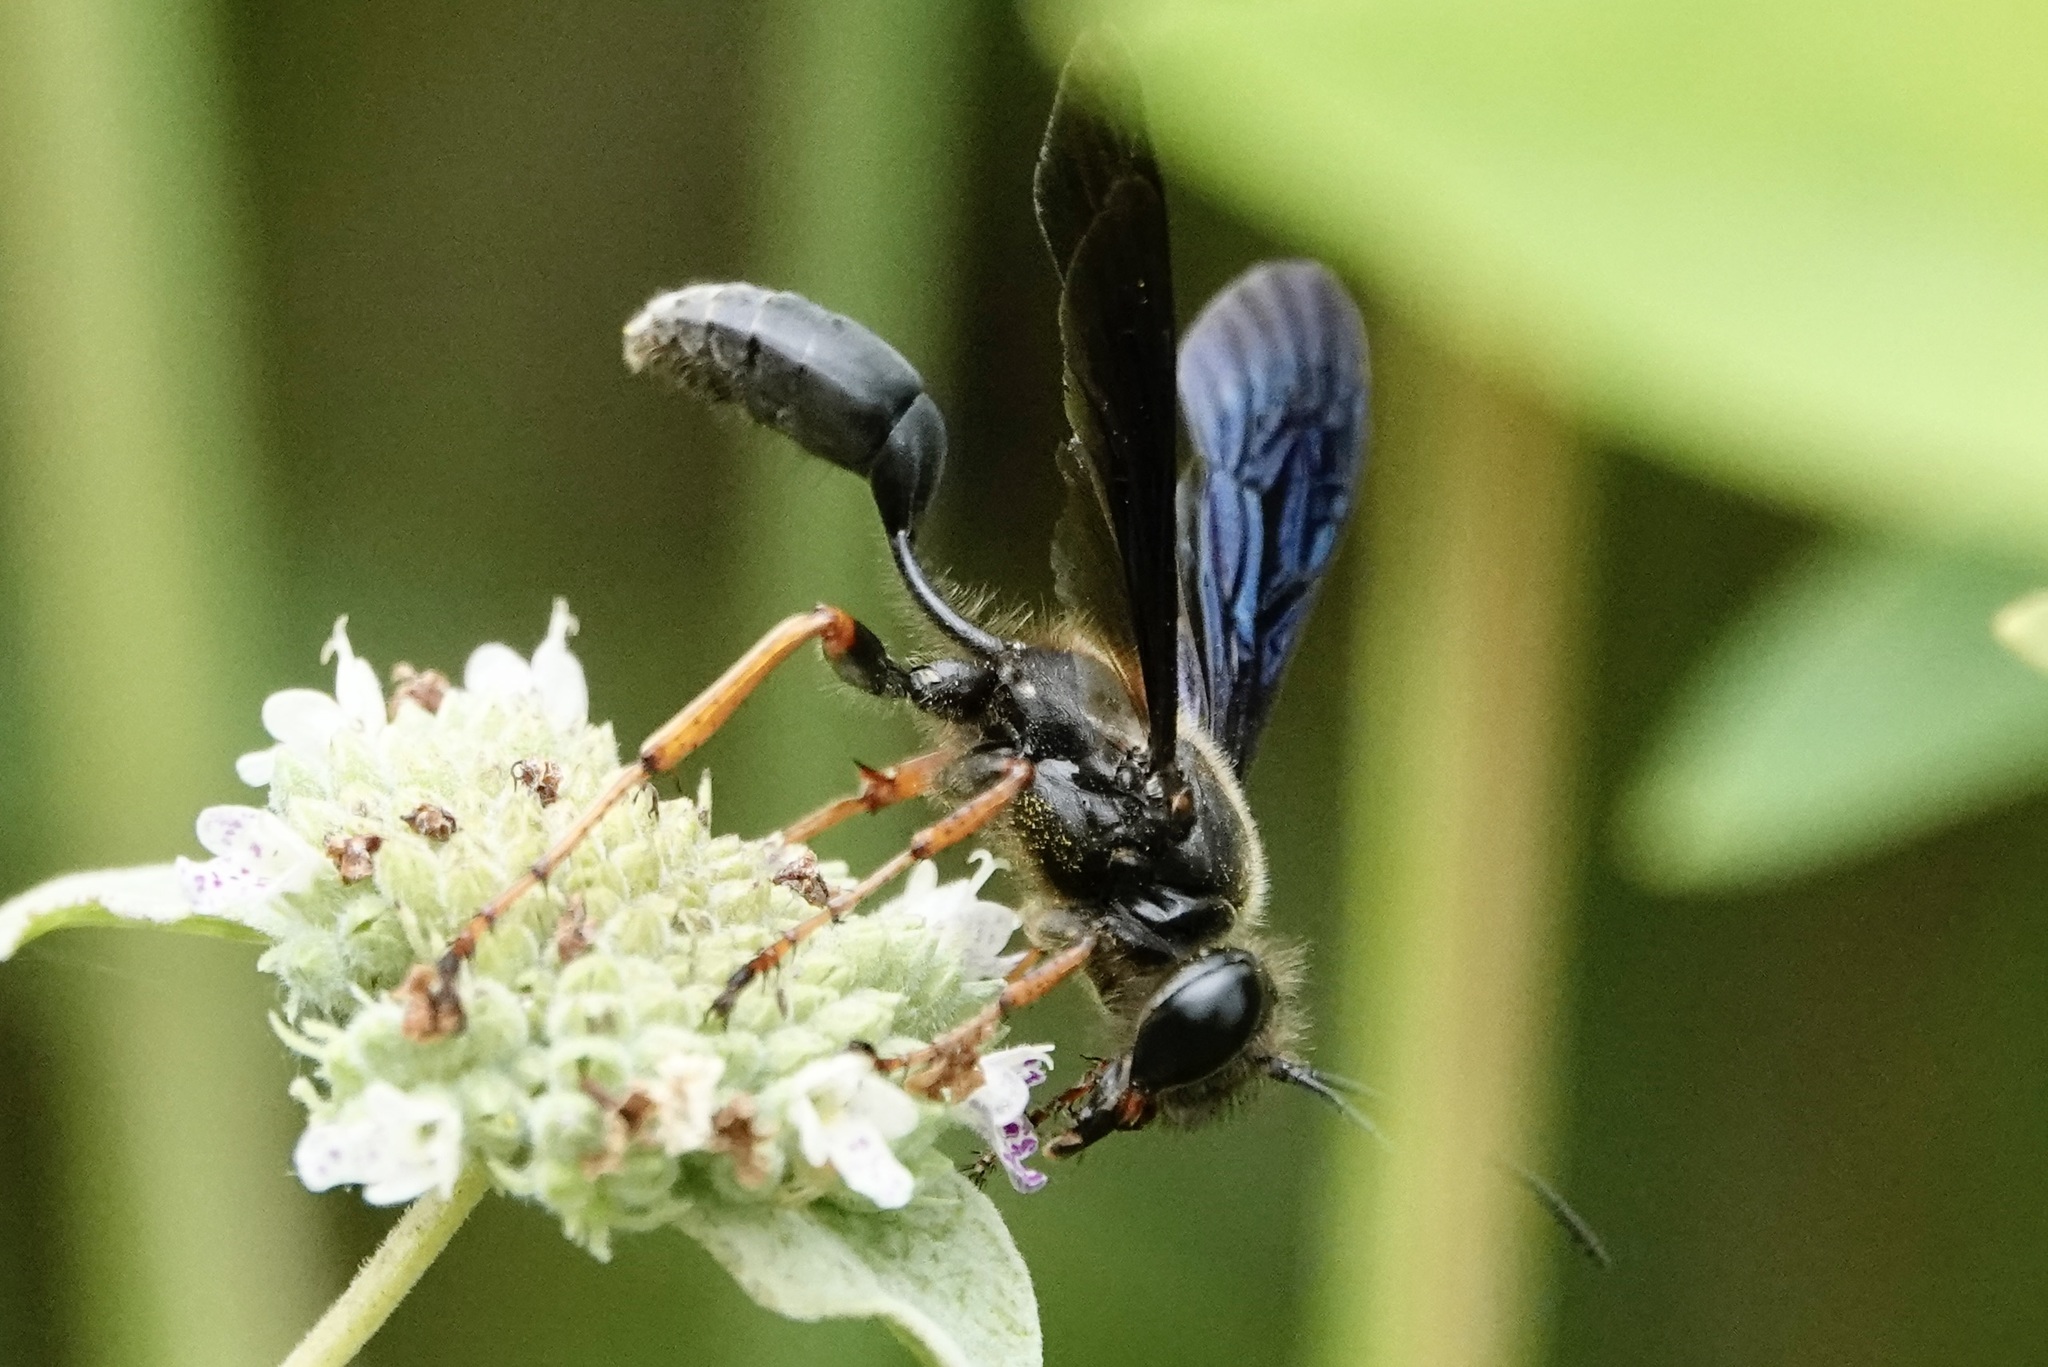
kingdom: Animalia
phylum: Arthropoda
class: Insecta
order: Hymenoptera
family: Sphecidae
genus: Isodontia
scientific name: Isodontia auripes
